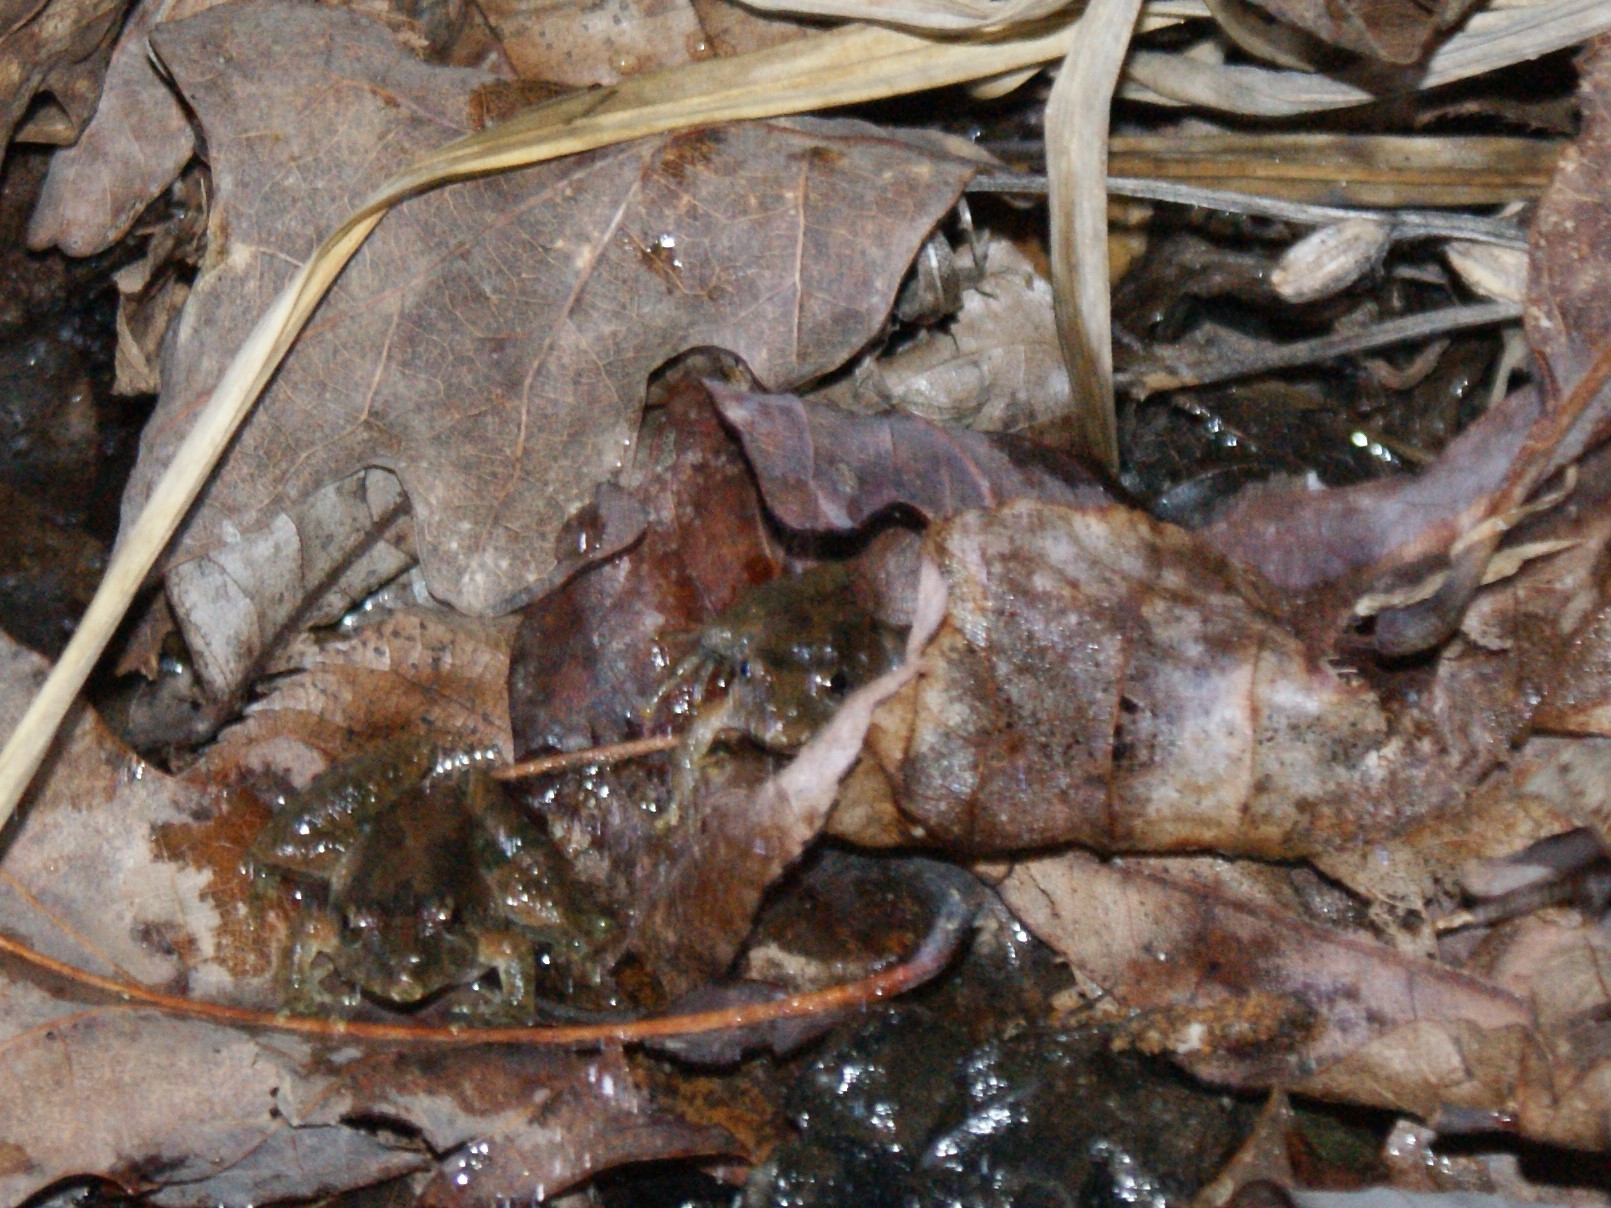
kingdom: Animalia
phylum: Chordata
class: Amphibia
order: Anura
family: Hylidae
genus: Acris
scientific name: Acris crepitans
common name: Northern cricket frog
